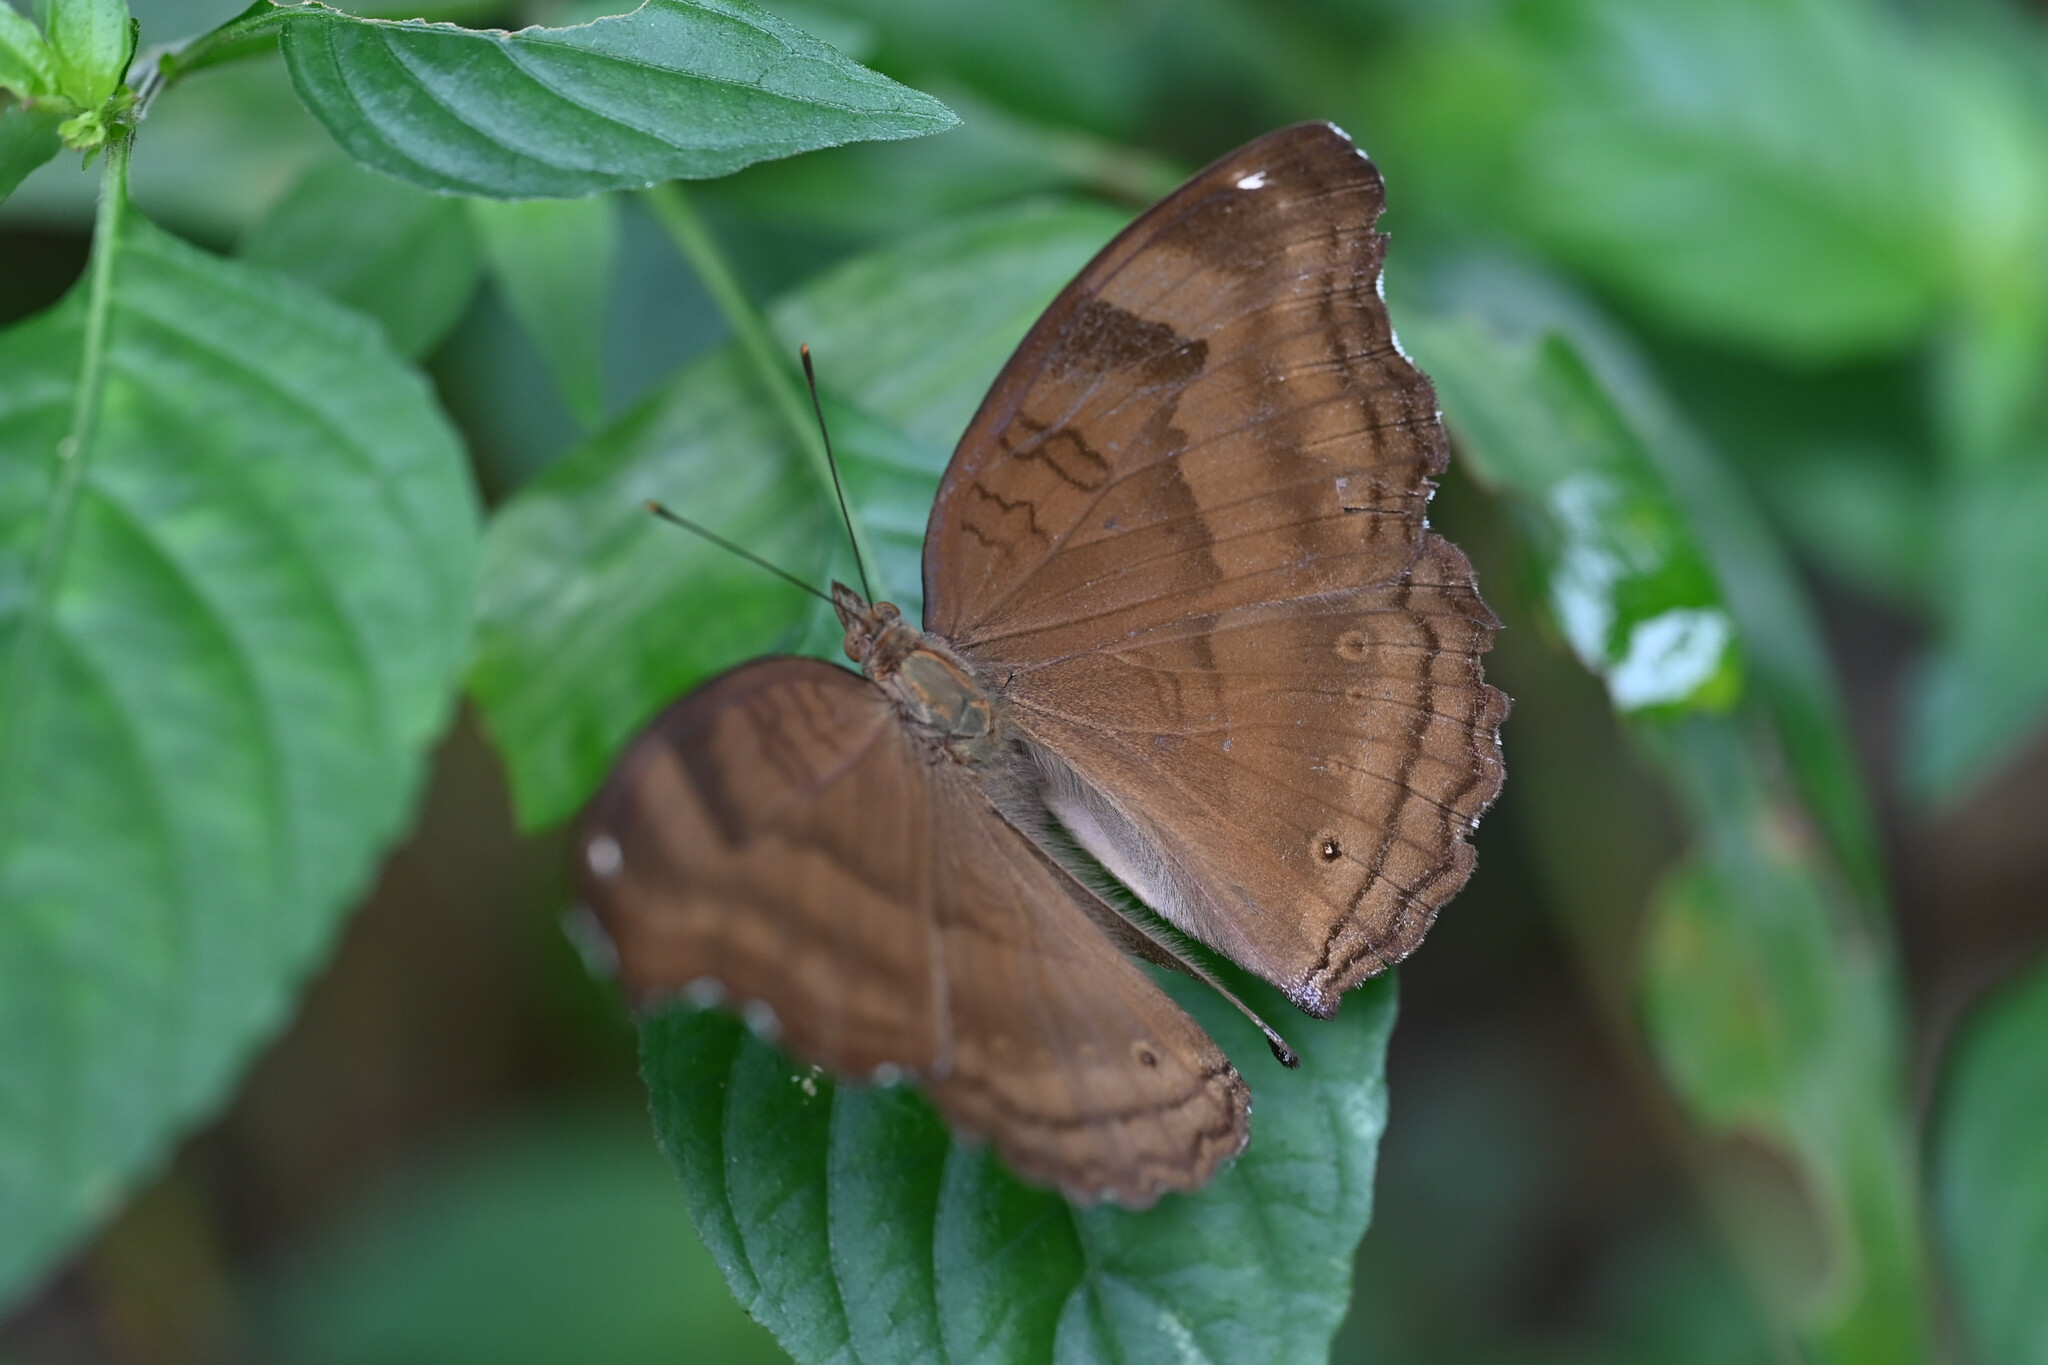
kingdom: Animalia
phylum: Arthropoda
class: Insecta
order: Lepidoptera
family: Nymphalidae
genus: Junonia
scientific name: Junonia iphita
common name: Chocolate pansy
